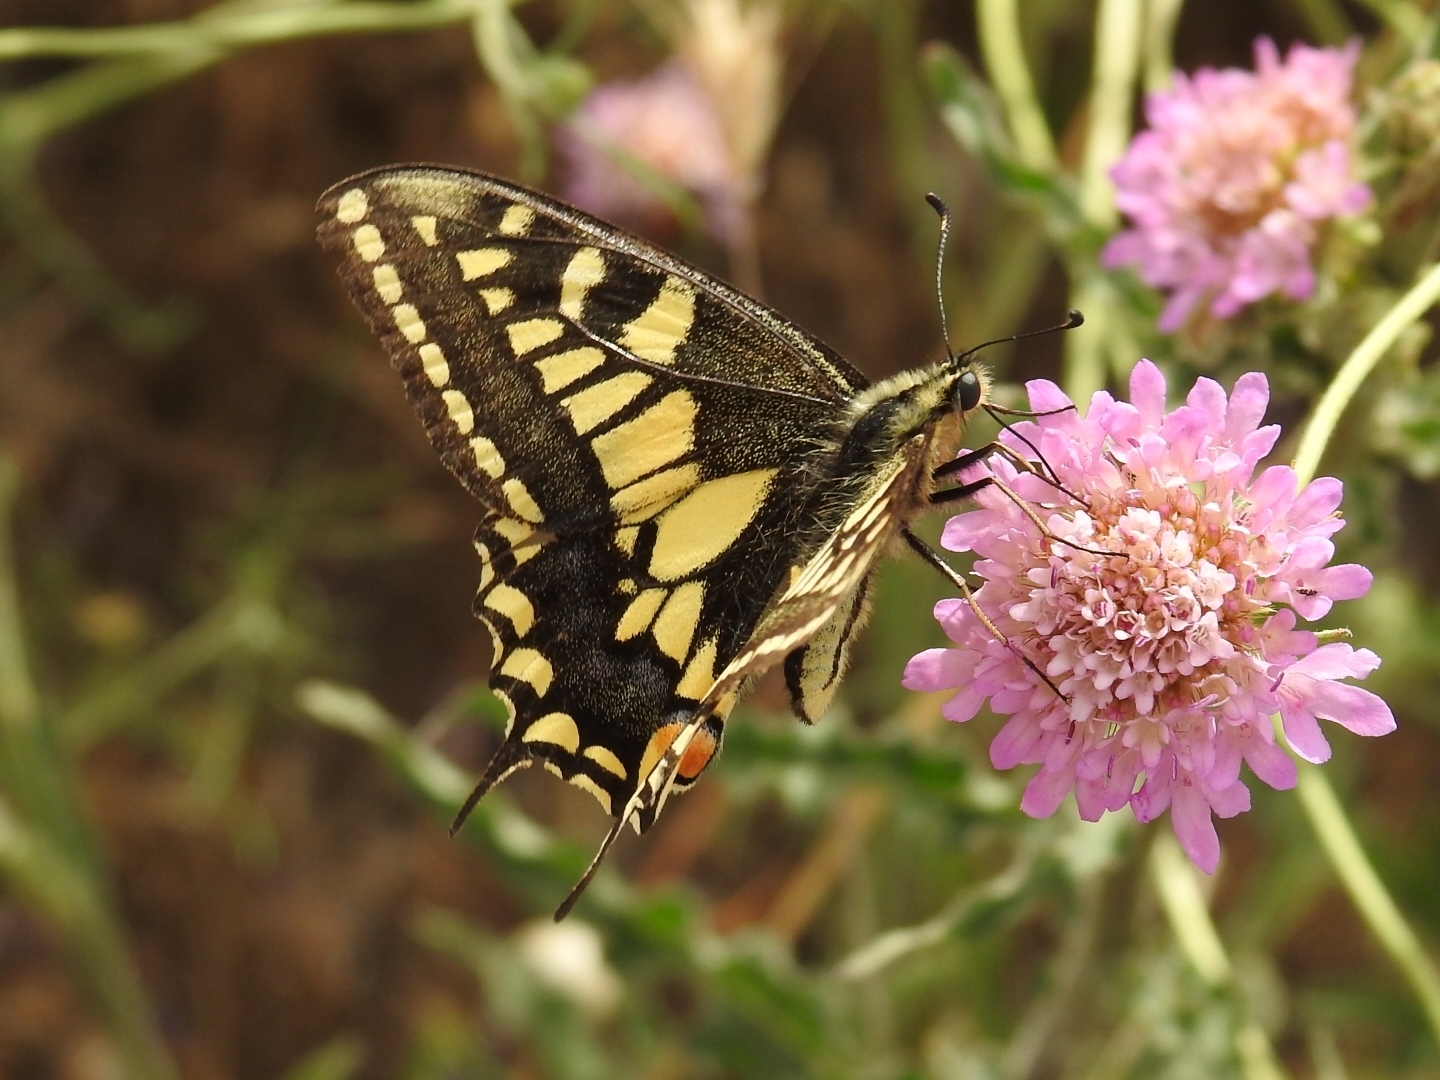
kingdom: Animalia
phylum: Arthropoda
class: Insecta
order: Lepidoptera
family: Papilionidae
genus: Papilio
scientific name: Papilio machaon
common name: Swallowtail
